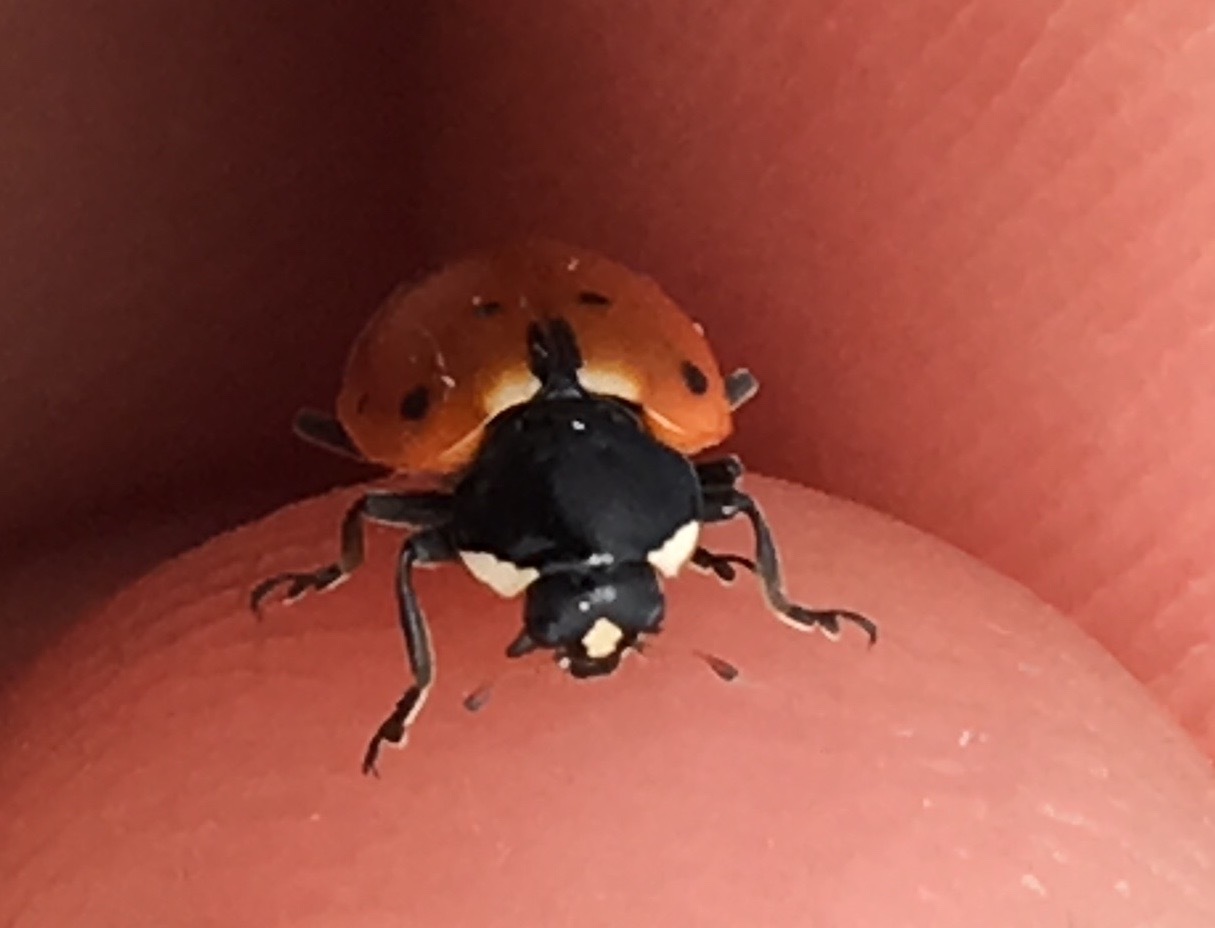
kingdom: Animalia
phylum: Arthropoda
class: Insecta
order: Coleoptera
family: Coccinellidae
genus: Hippodamia
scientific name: Hippodamia quinquesignata
